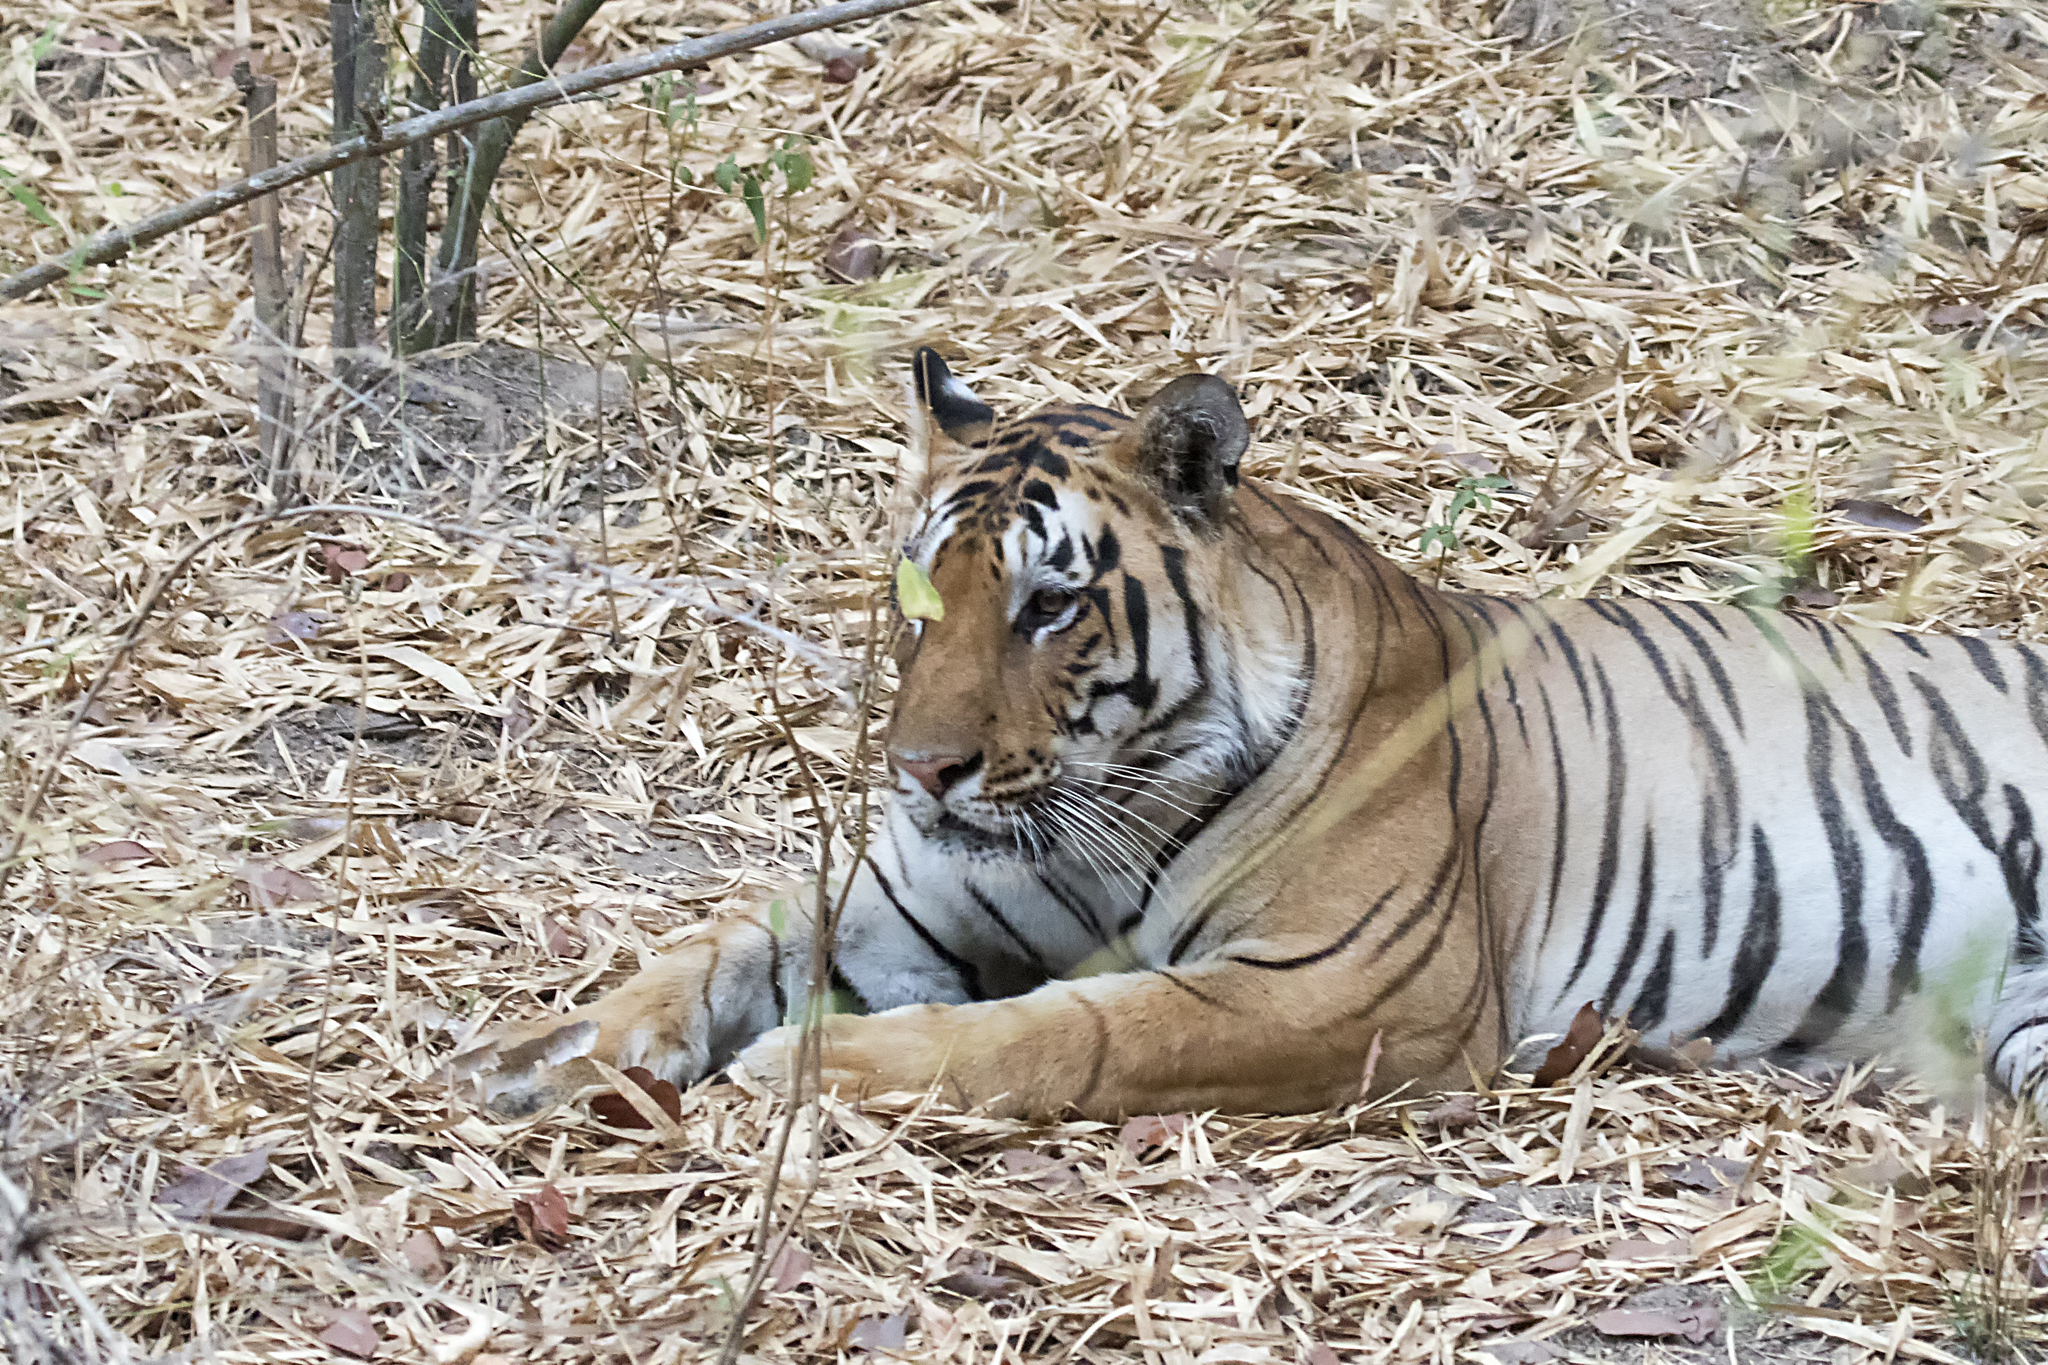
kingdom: Animalia
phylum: Chordata
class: Mammalia
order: Carnivora
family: Felidae
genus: Panthera
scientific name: Panthera tigris
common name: Tiger
